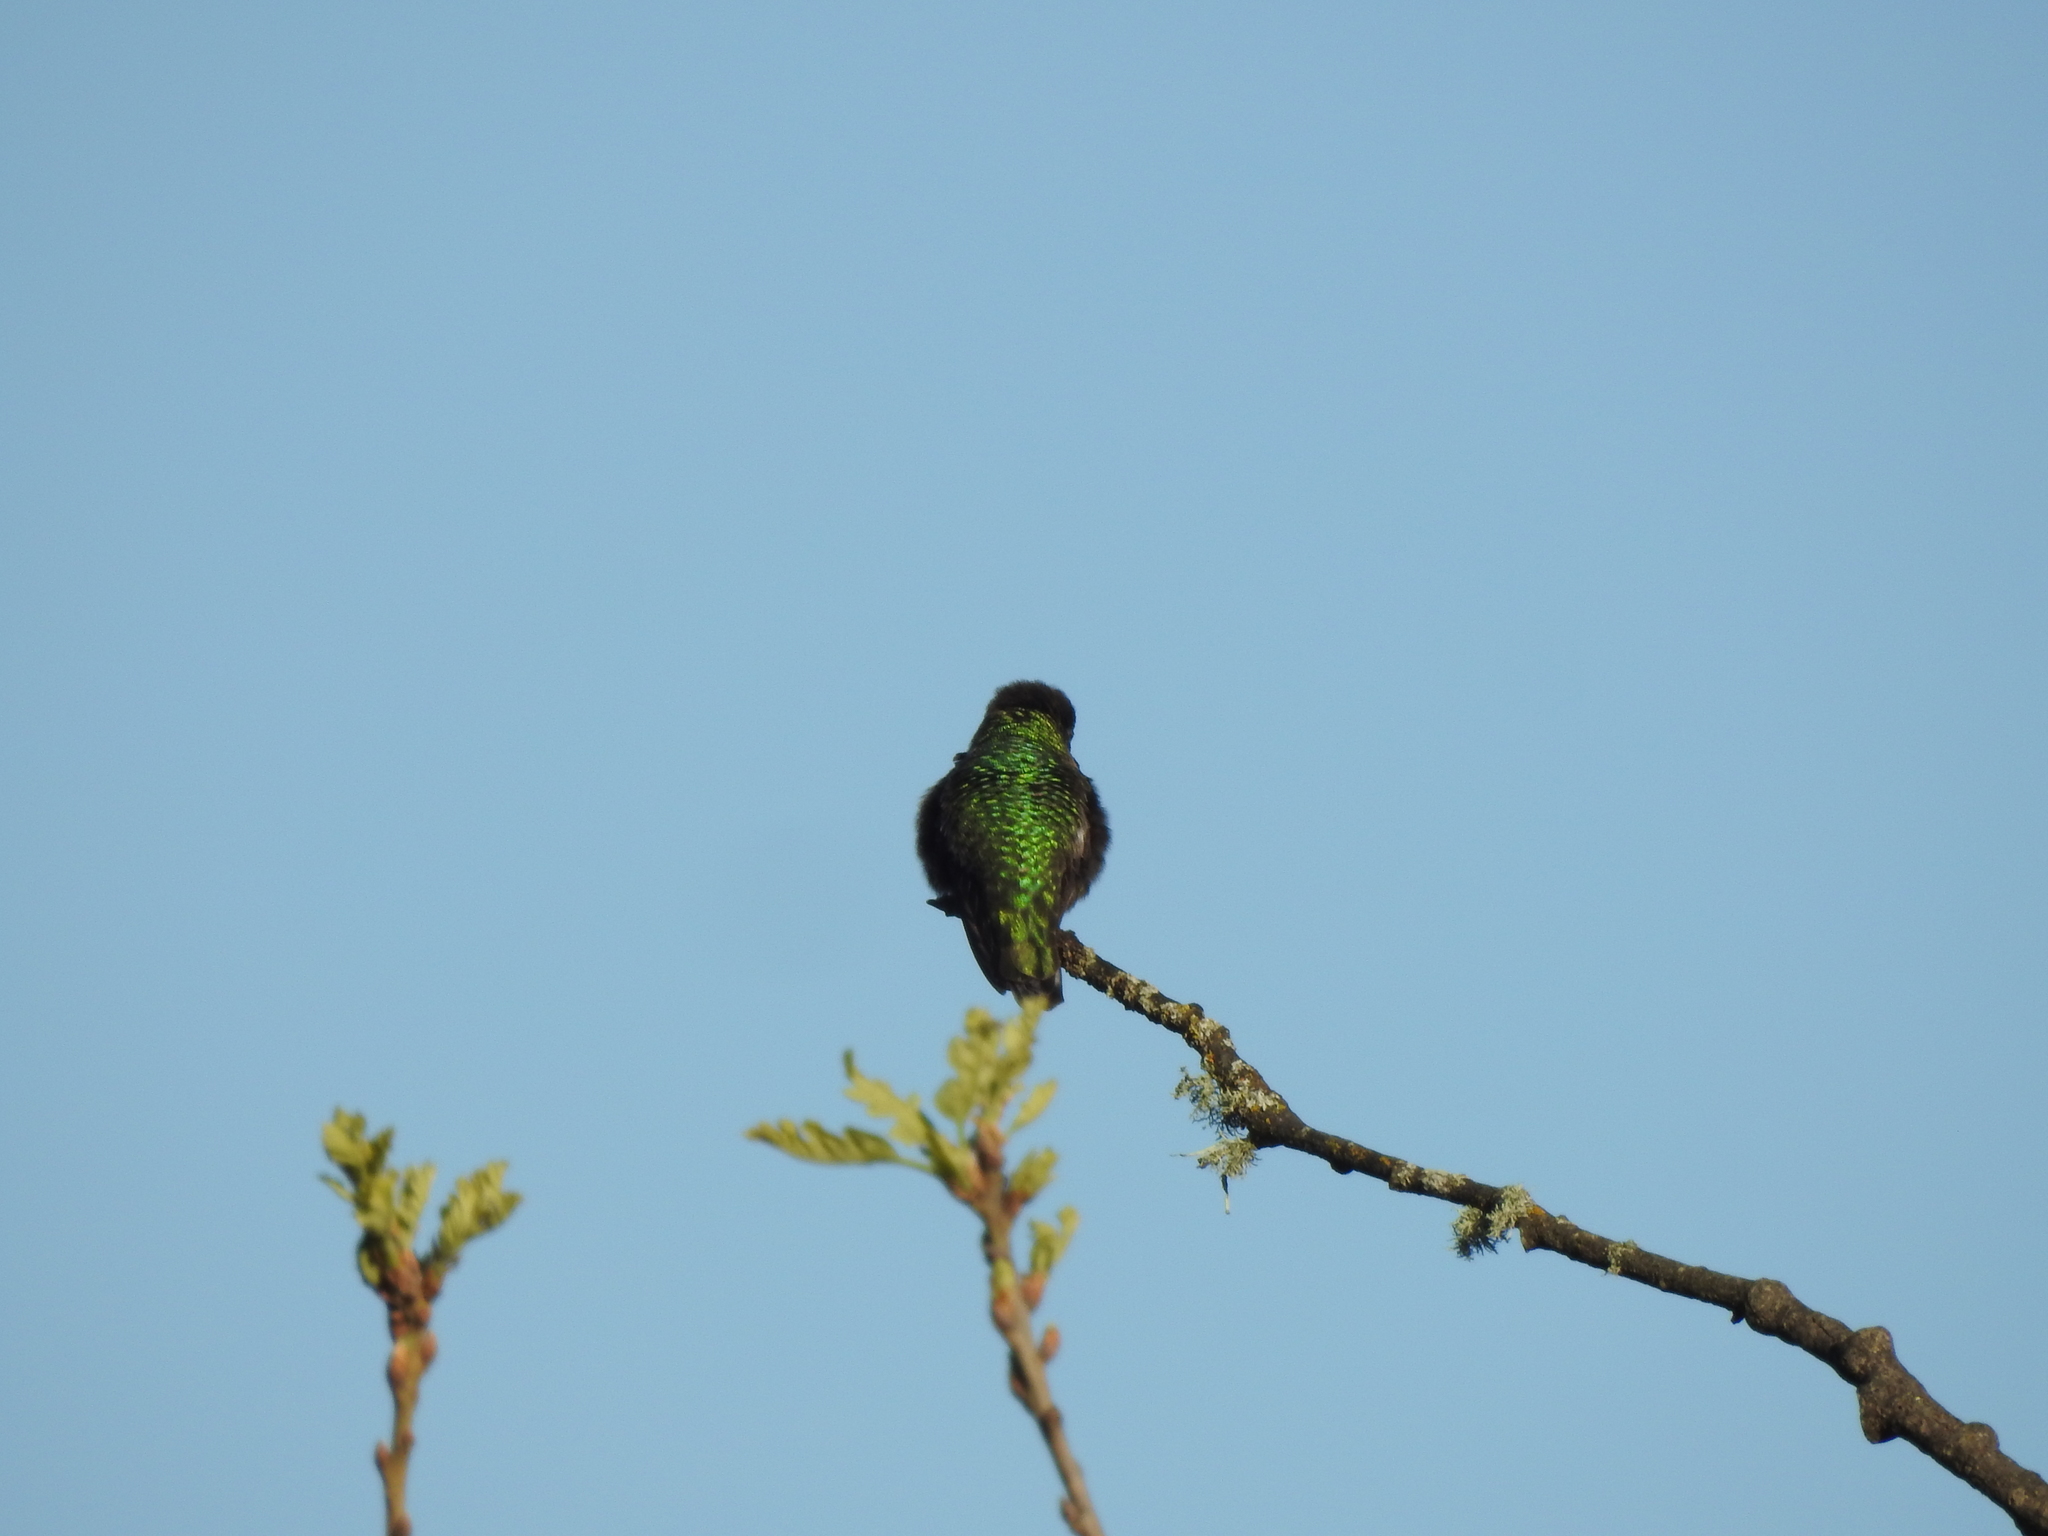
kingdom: Animalia
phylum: Chordata
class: Aves
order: Apodiformes
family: Trochilidae
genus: Calypte
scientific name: Calypte anna
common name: Anna's hummingbird
